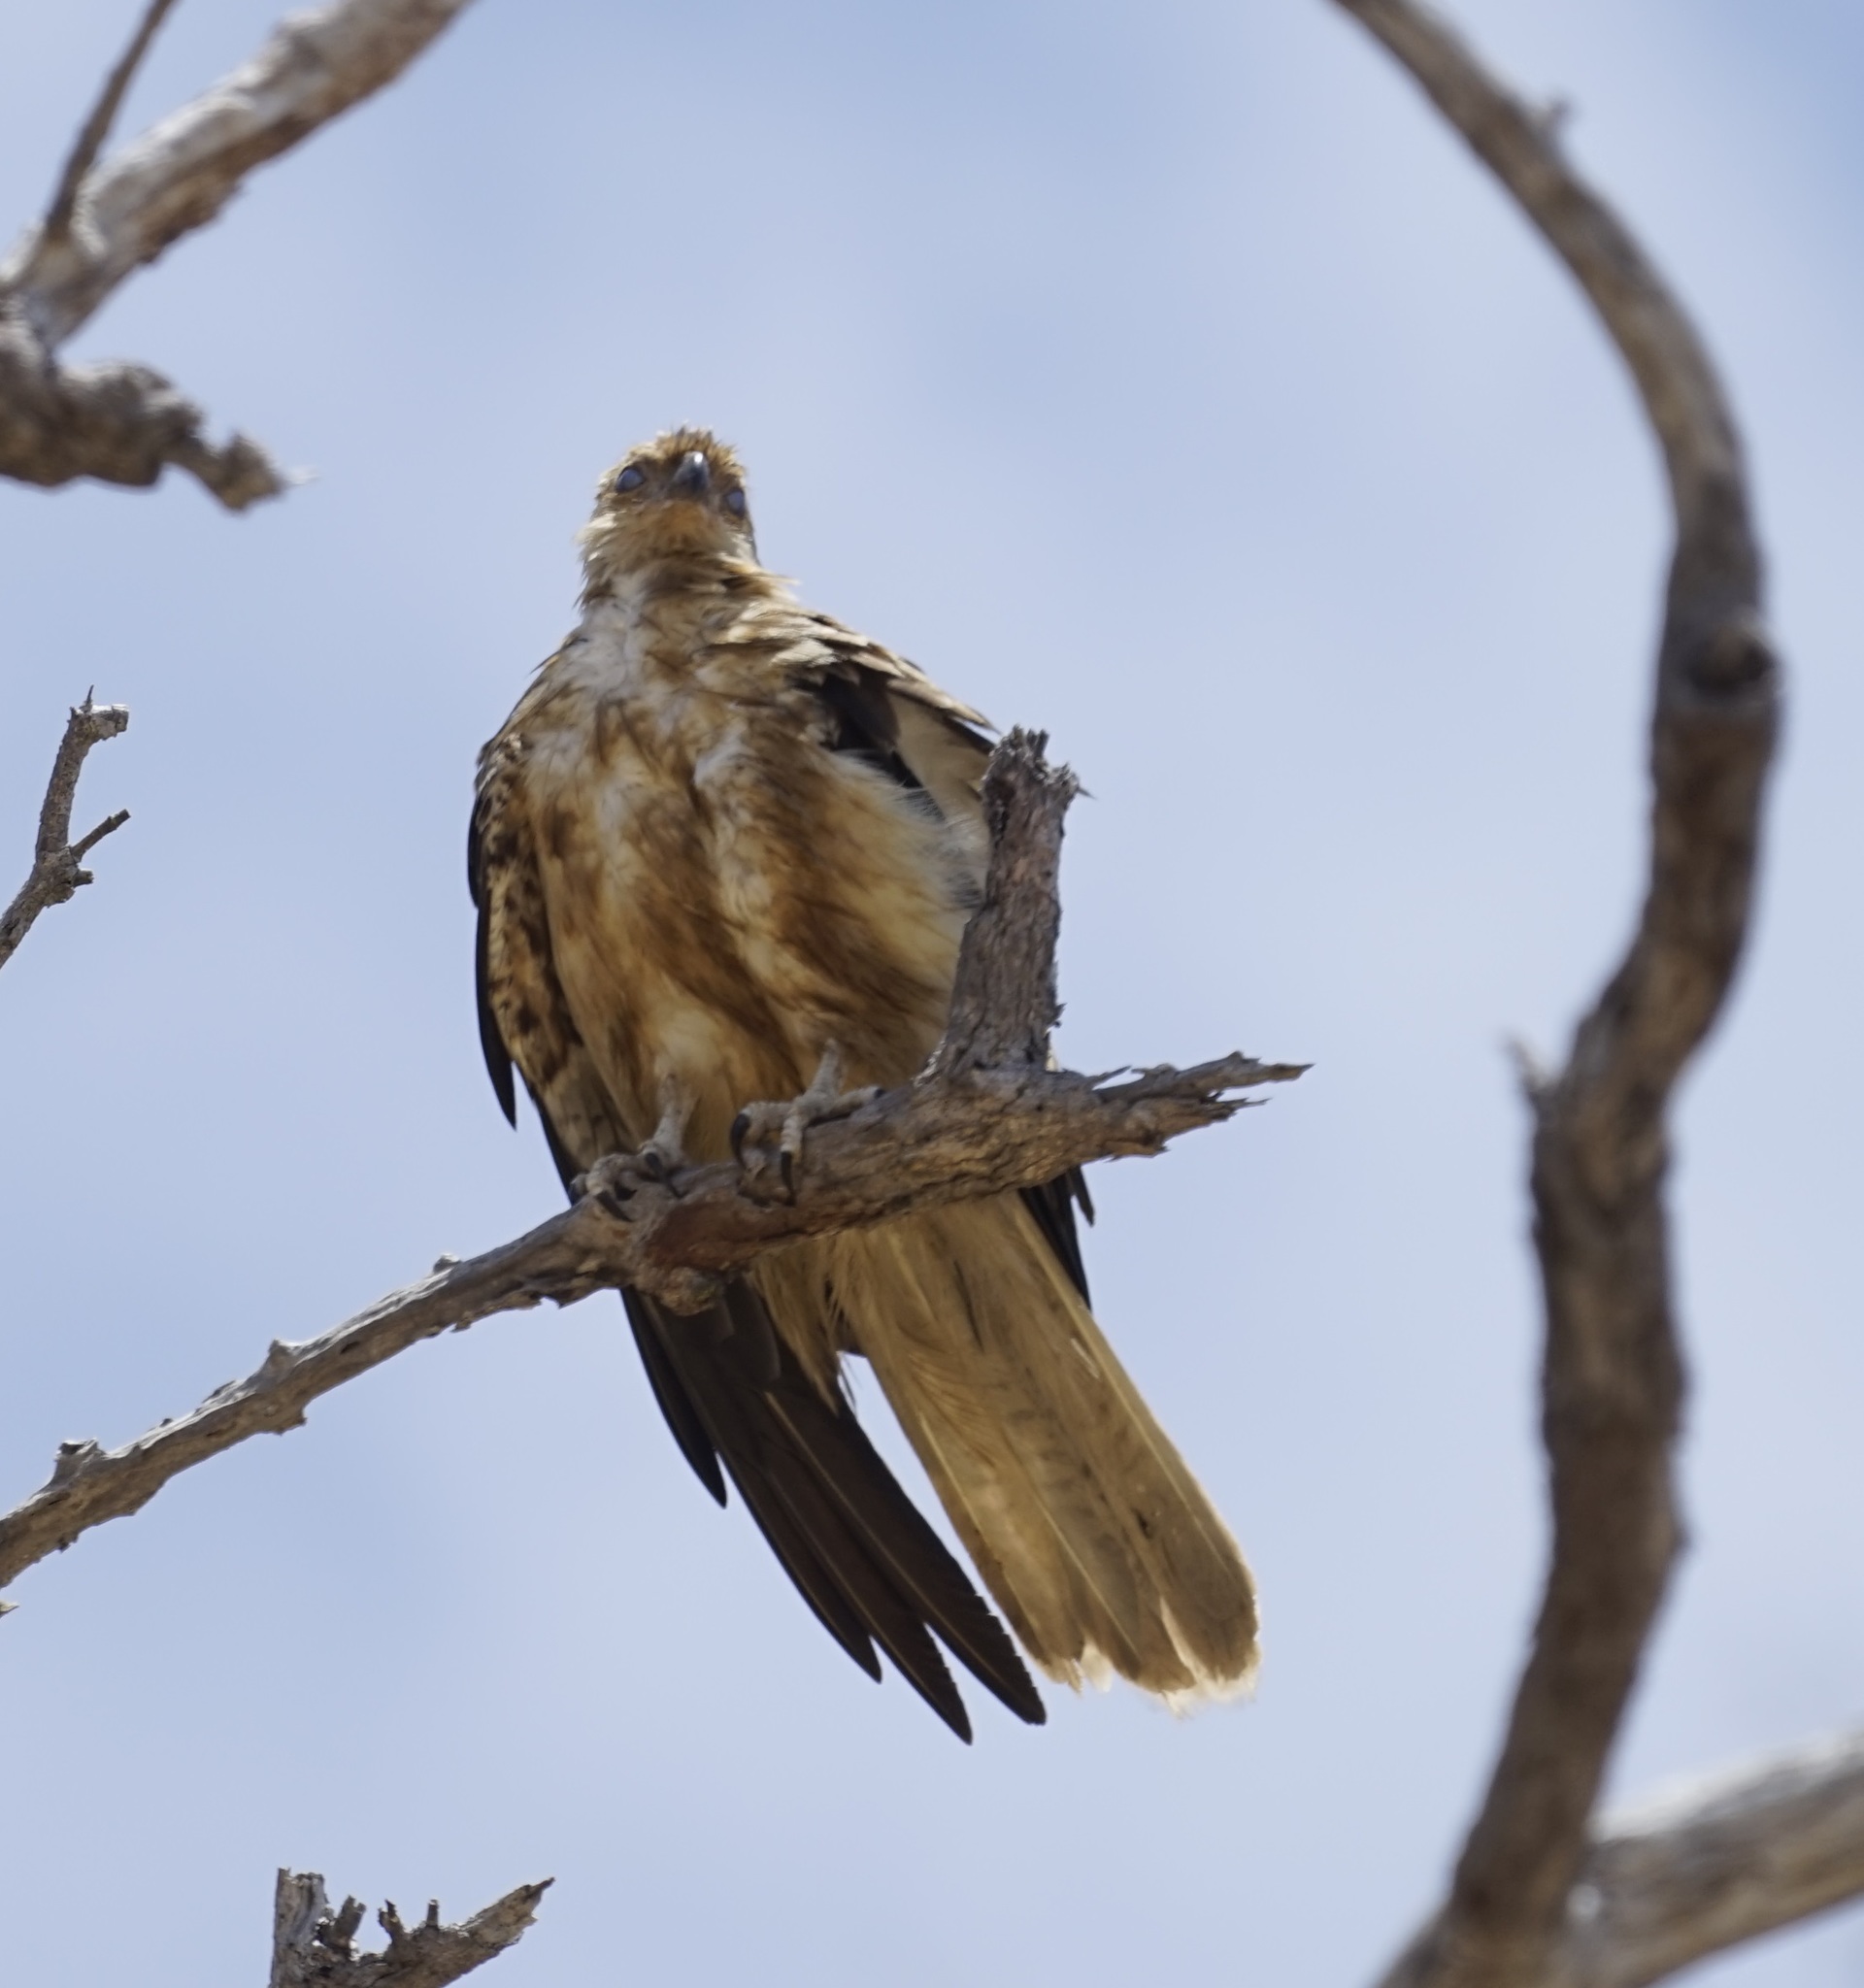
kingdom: Animalia
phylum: Chordata
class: Aves
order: Accipitriformes
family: Accipitridae
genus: Haliastur
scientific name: Haliastur sphenurus
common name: Whistling kite
